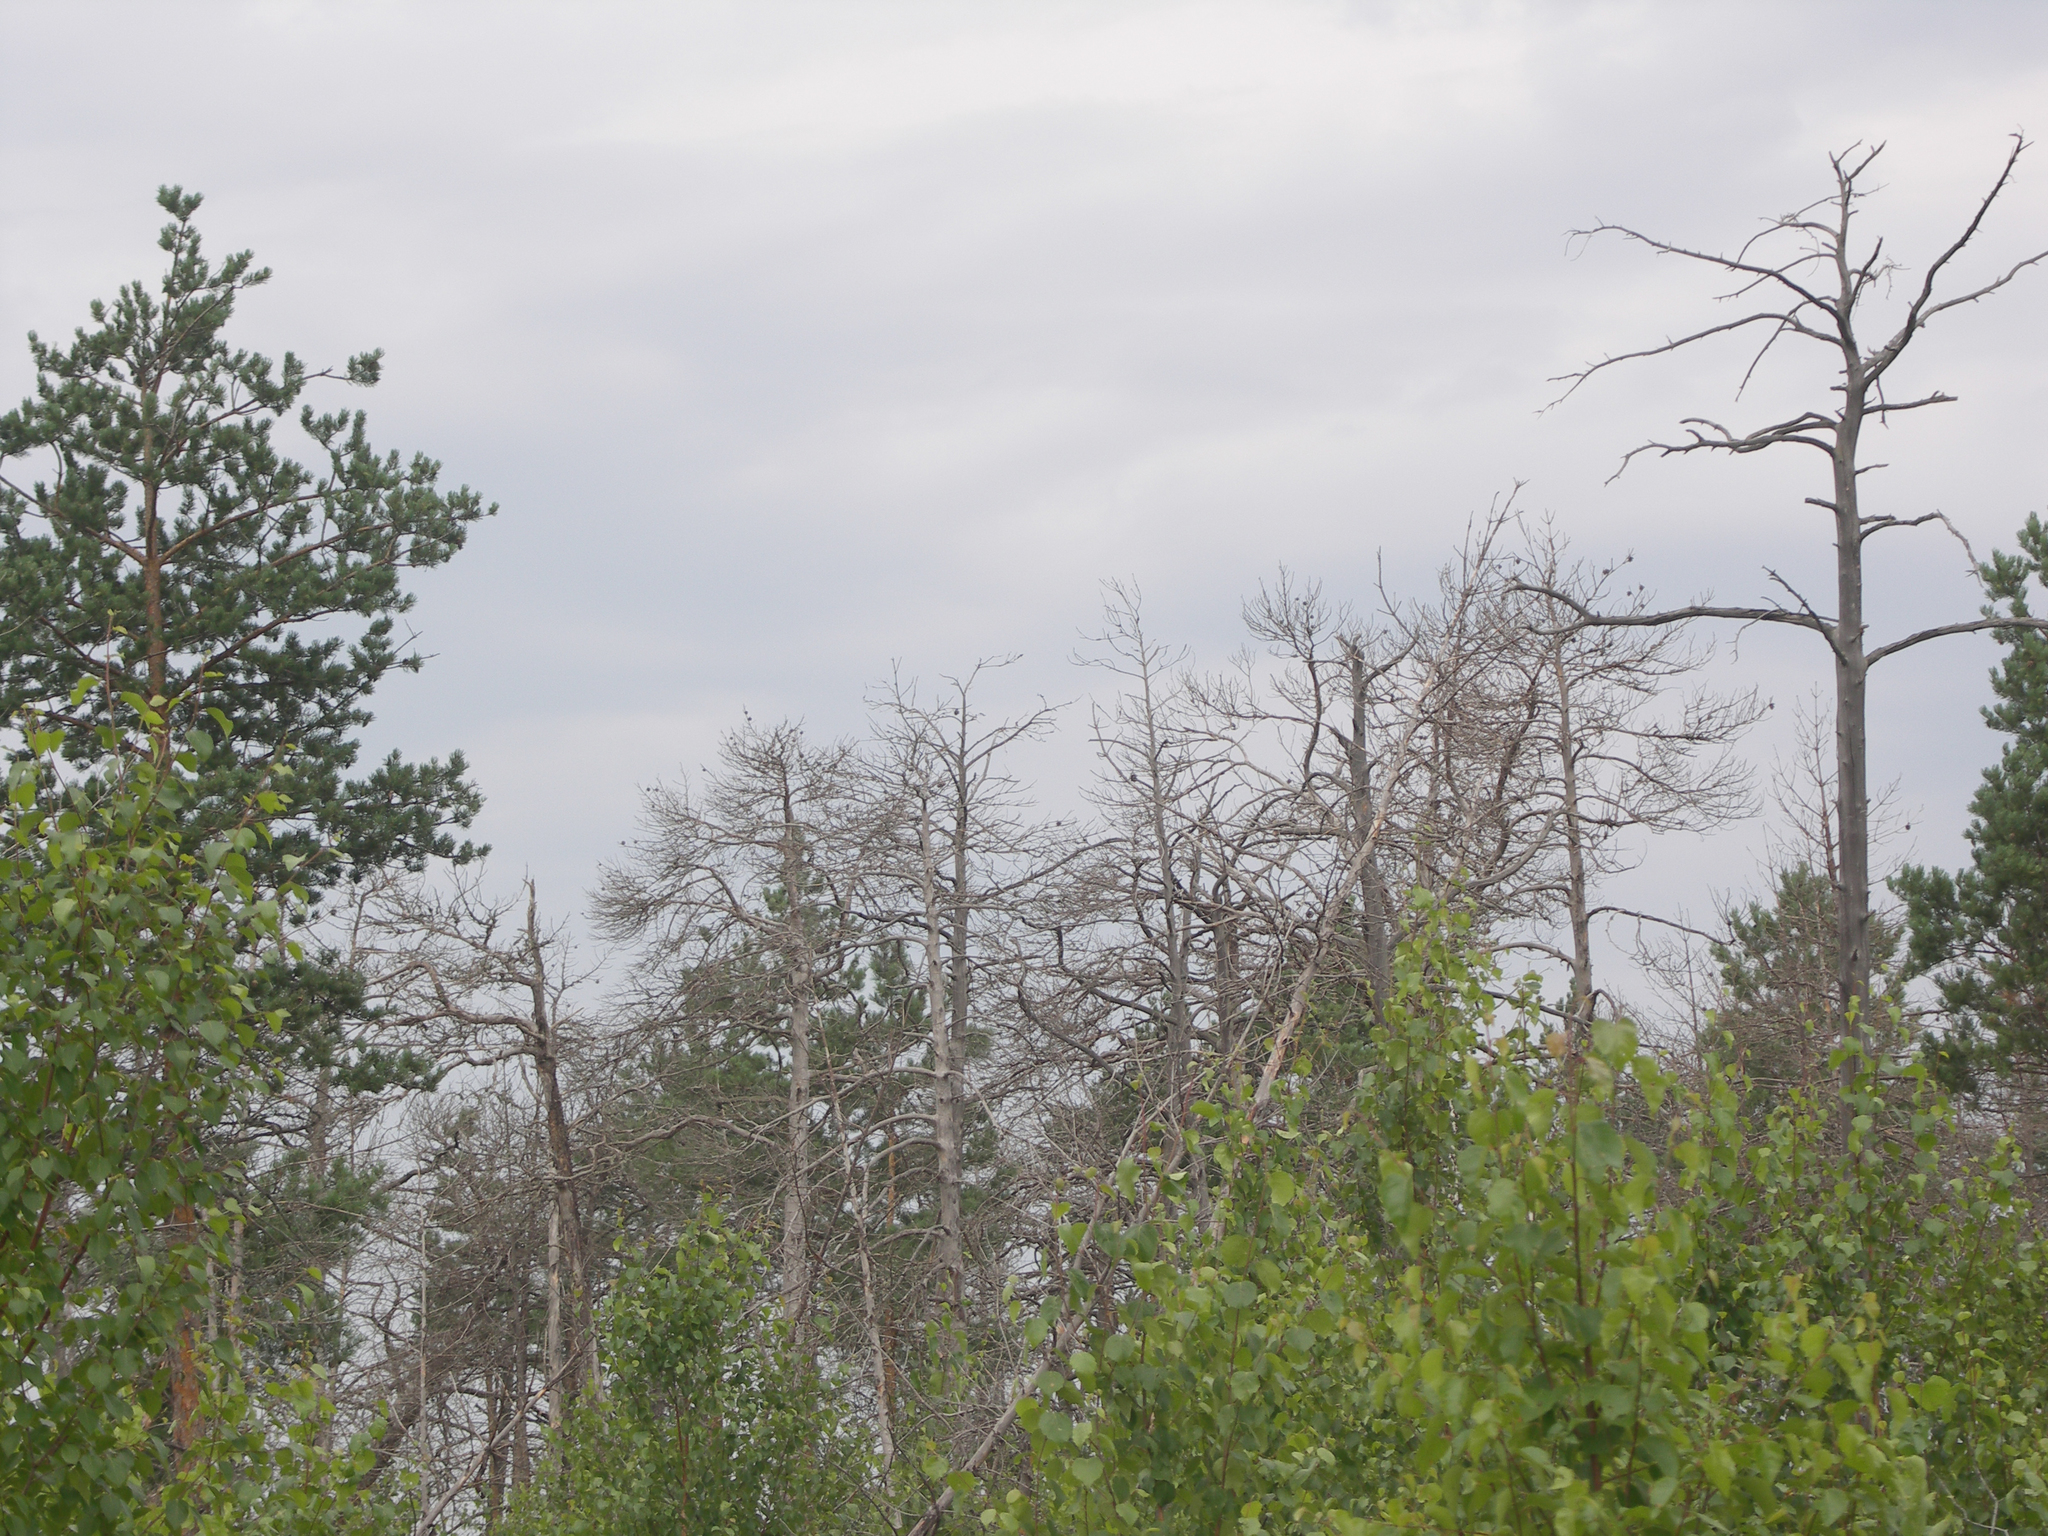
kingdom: Plantae
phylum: Tracheophyta
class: Pinopsida
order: Pinales
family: Pinaceae
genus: Pinus
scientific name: Pinus sylvestris
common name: Scots pine
